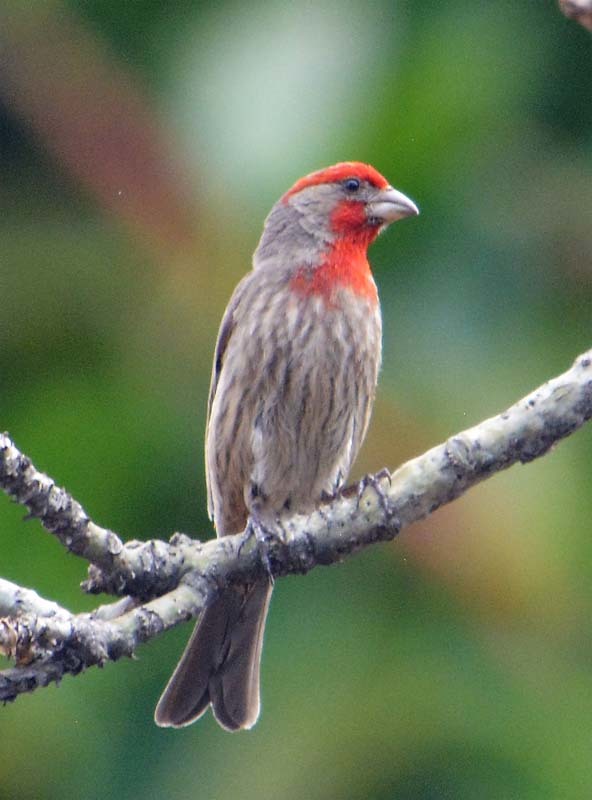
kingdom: Animalia
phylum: Chordata
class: Aves
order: Passeriformes
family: Fringillidae
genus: Haemorhous
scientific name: Haemorhous mexicanus
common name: House finch
